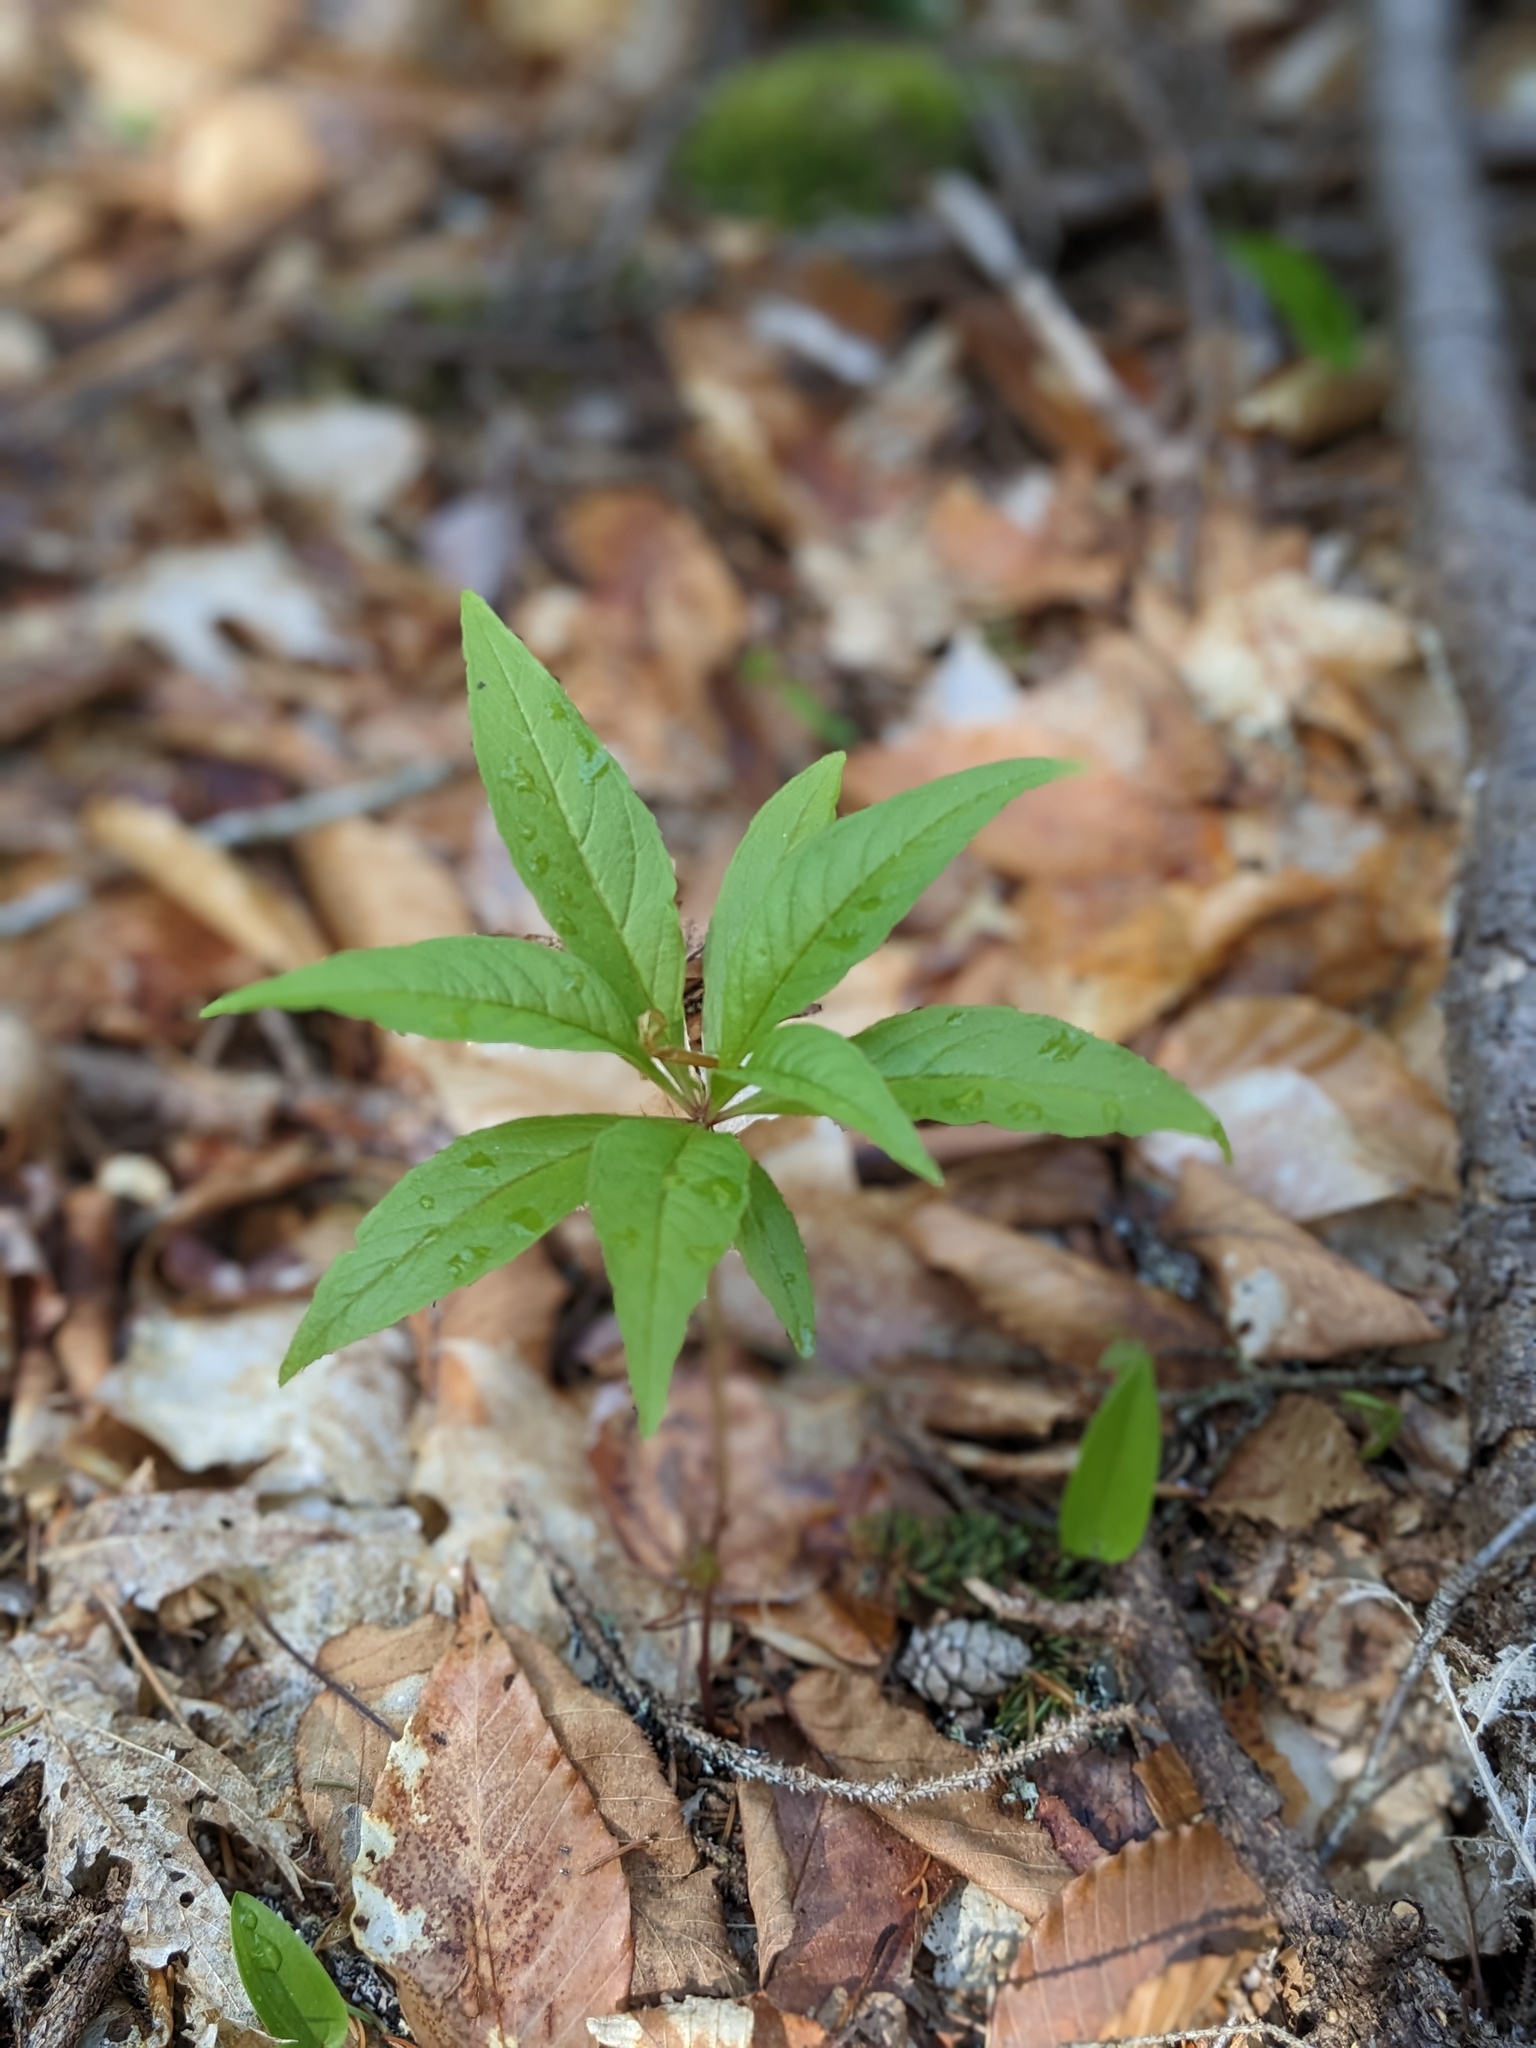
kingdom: Plantae
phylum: Tracheophyta
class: Magnoliopsida
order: Ericales
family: Primulaceae
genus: Lysimachia
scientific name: Lysimachia borealis
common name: American starflower
